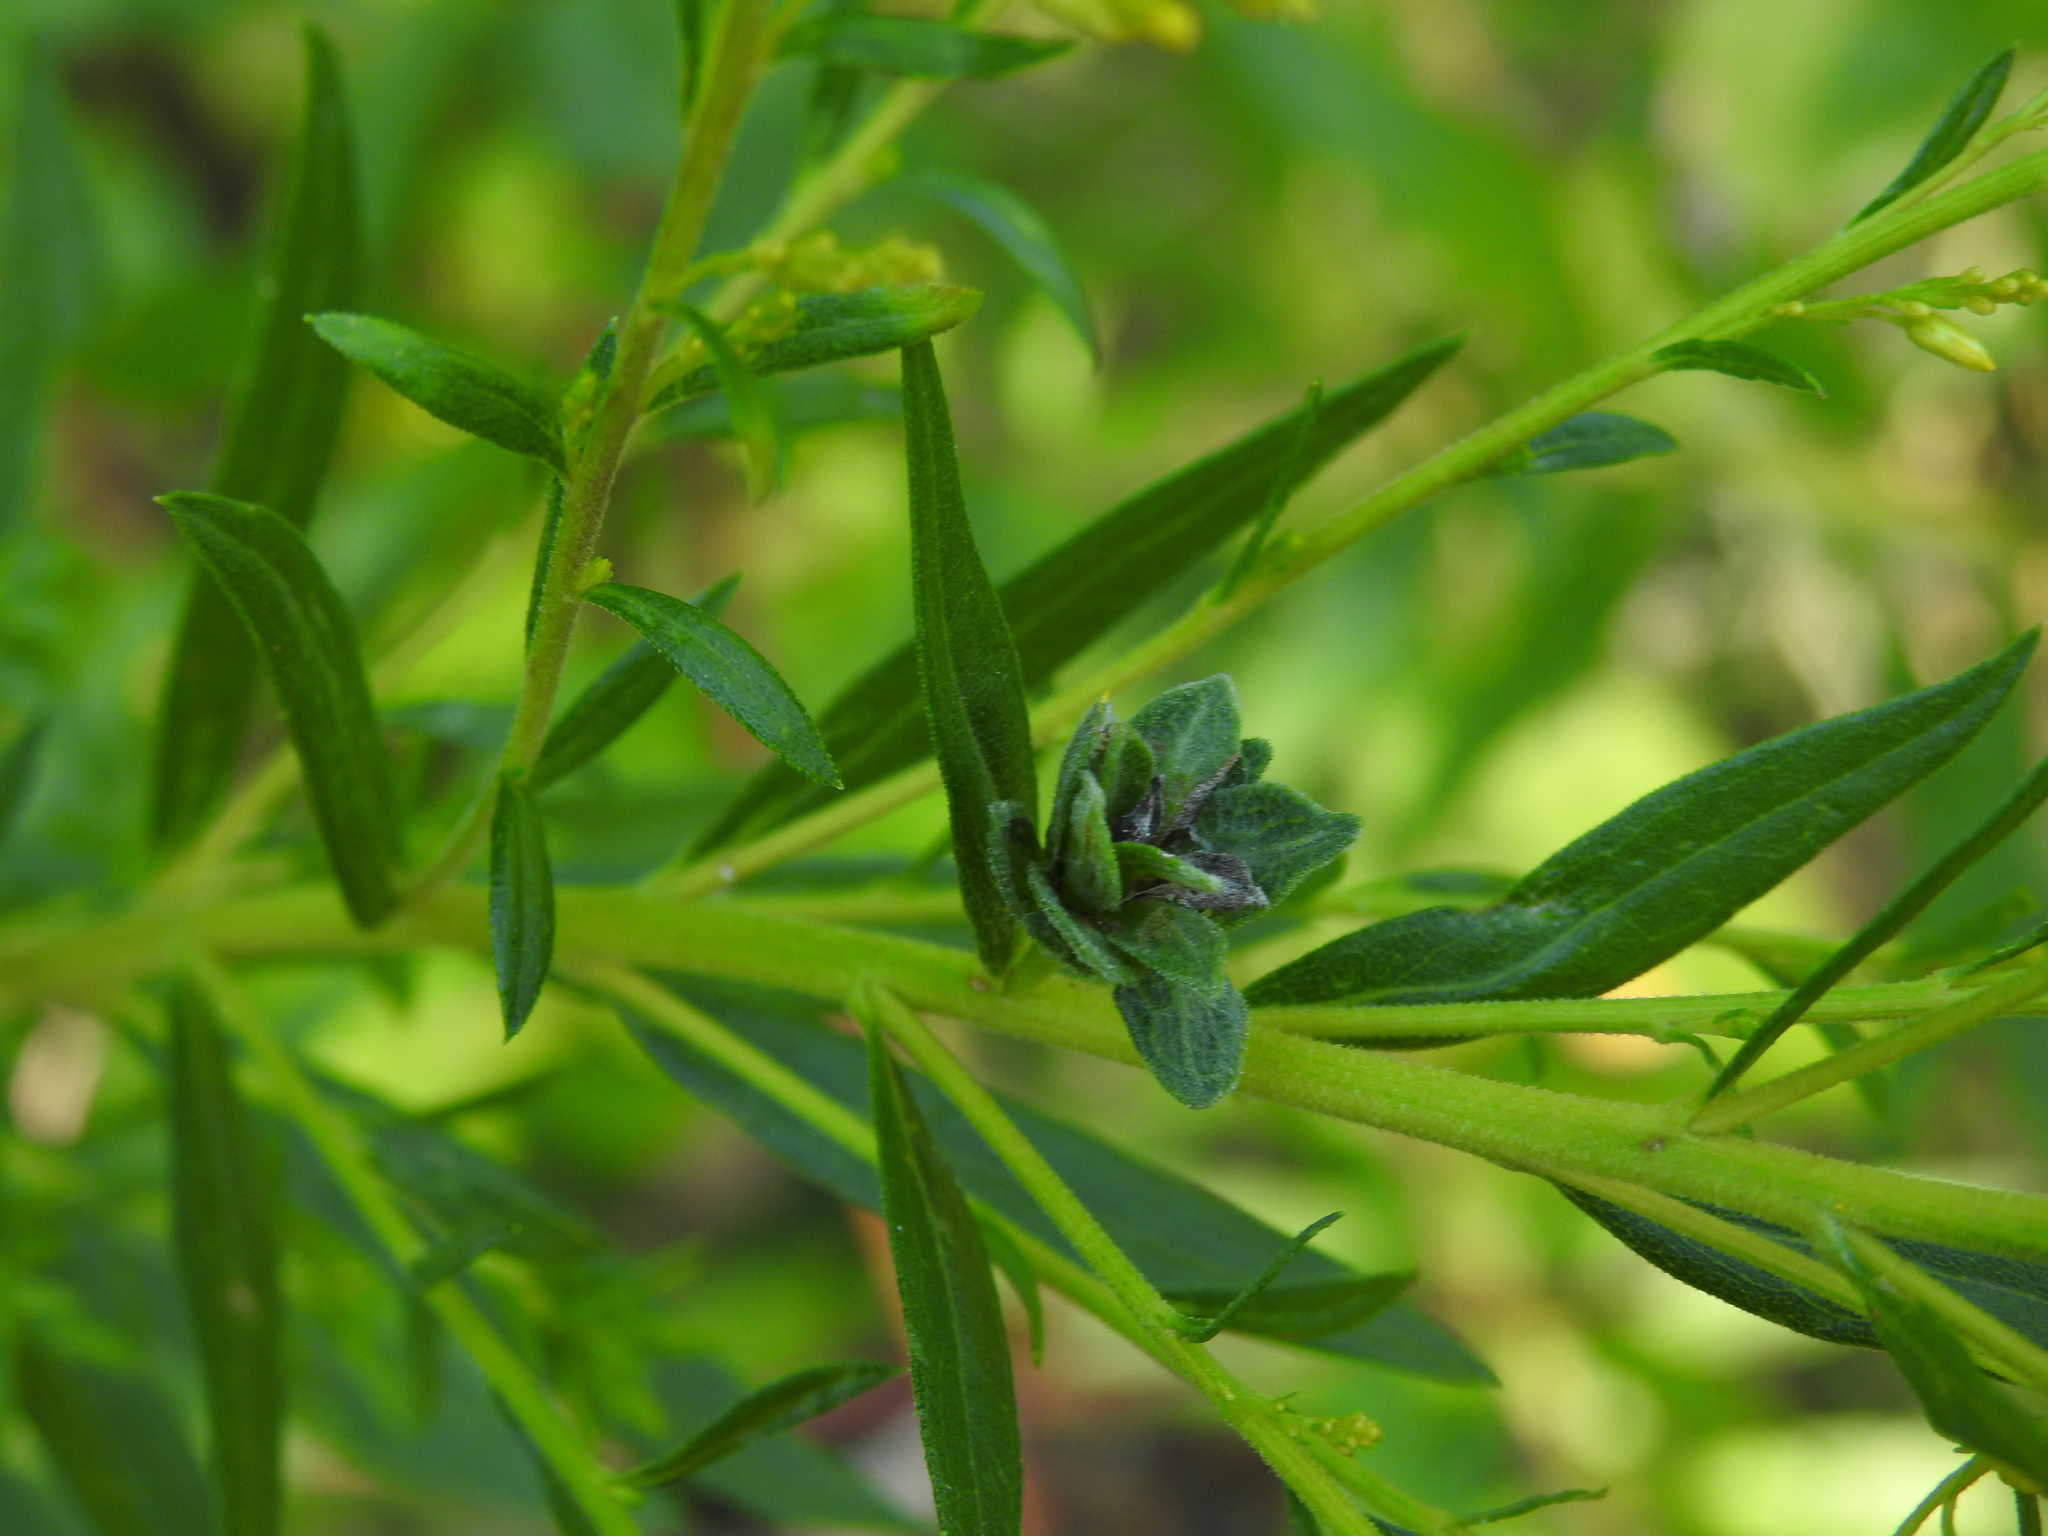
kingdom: Animalia
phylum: Arthropoda
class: Insecta
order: Diptera
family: Cecidomyiidae
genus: Asphondylia
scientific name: Asphondylia solidaginis
